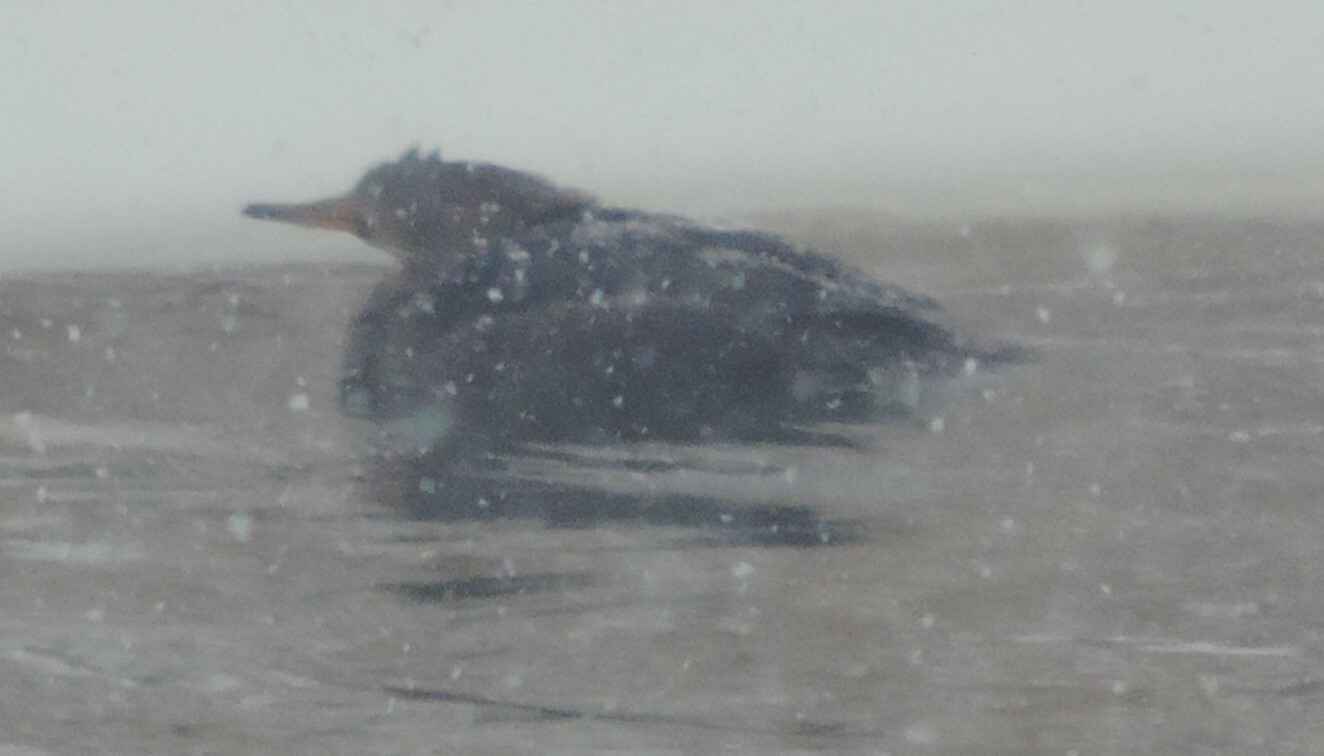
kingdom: Animalia
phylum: Chordata
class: Aves
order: Anseriformes
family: Anatidae
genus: Lophodytes
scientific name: Lophodytes cucullatus
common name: Hooded merganser
